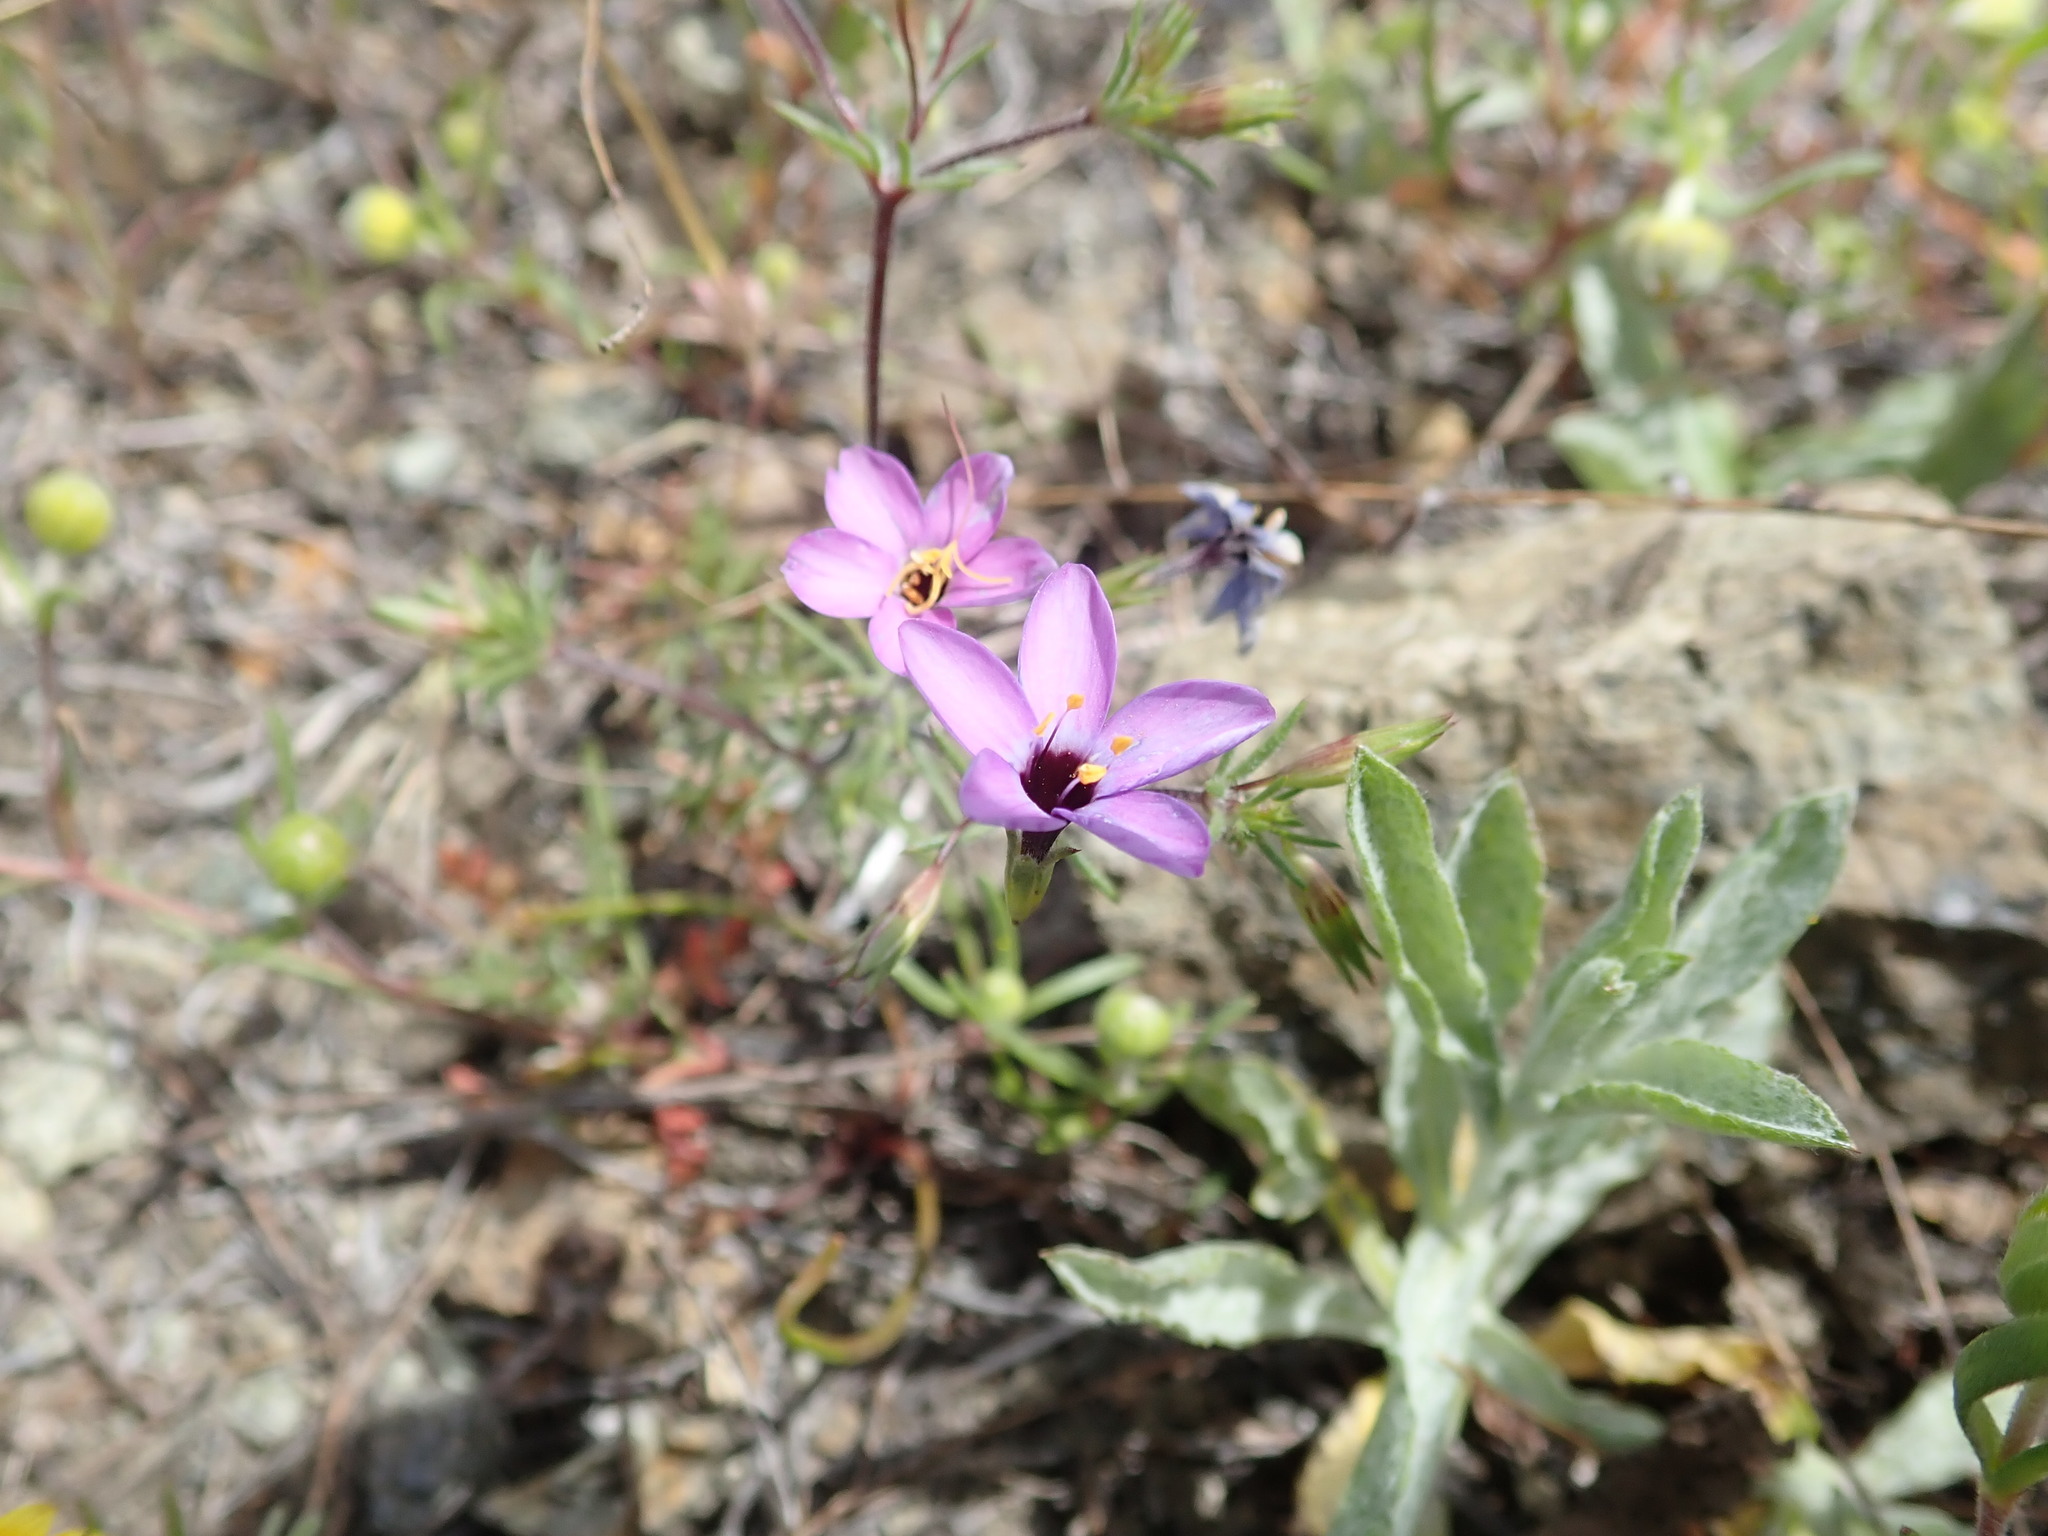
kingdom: Plantae
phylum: Tracheophyta
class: Magnoliopsida
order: Ericales
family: Polemoniaceae
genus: Leptosiphon
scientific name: Leptosiphon ambiguus
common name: Serpentine linanthus
